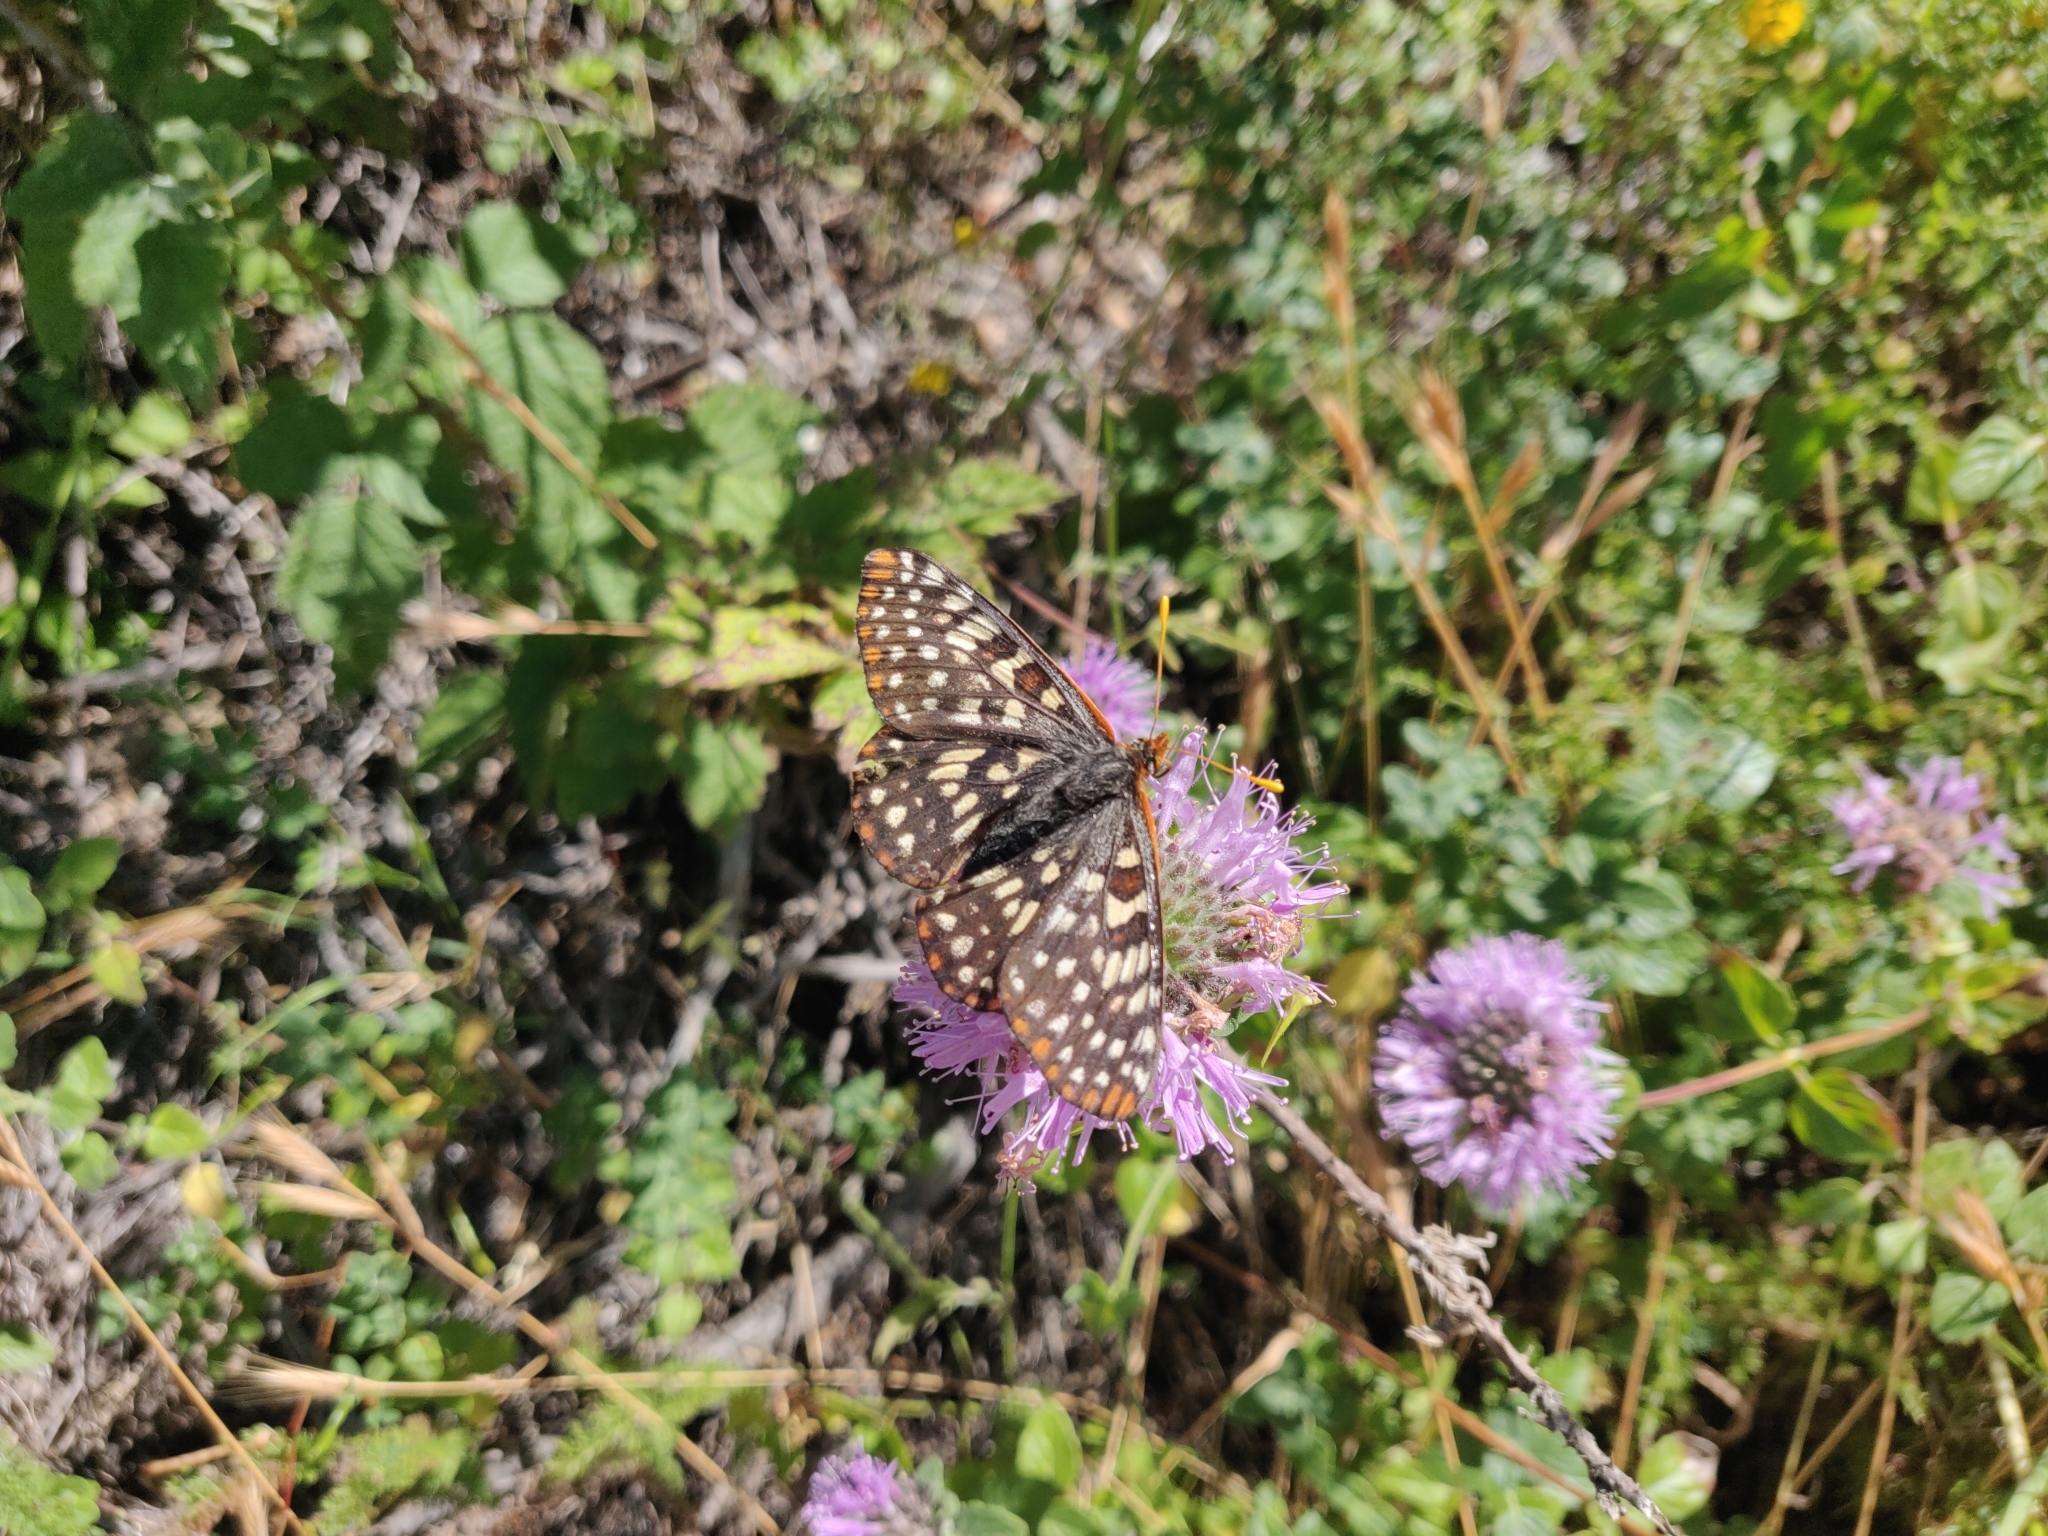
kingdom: Animalia
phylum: Arthropoda
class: Insecta
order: Lepidoptera
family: Nymphalidae
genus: Occidryas
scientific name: Occidryas chalcedona
